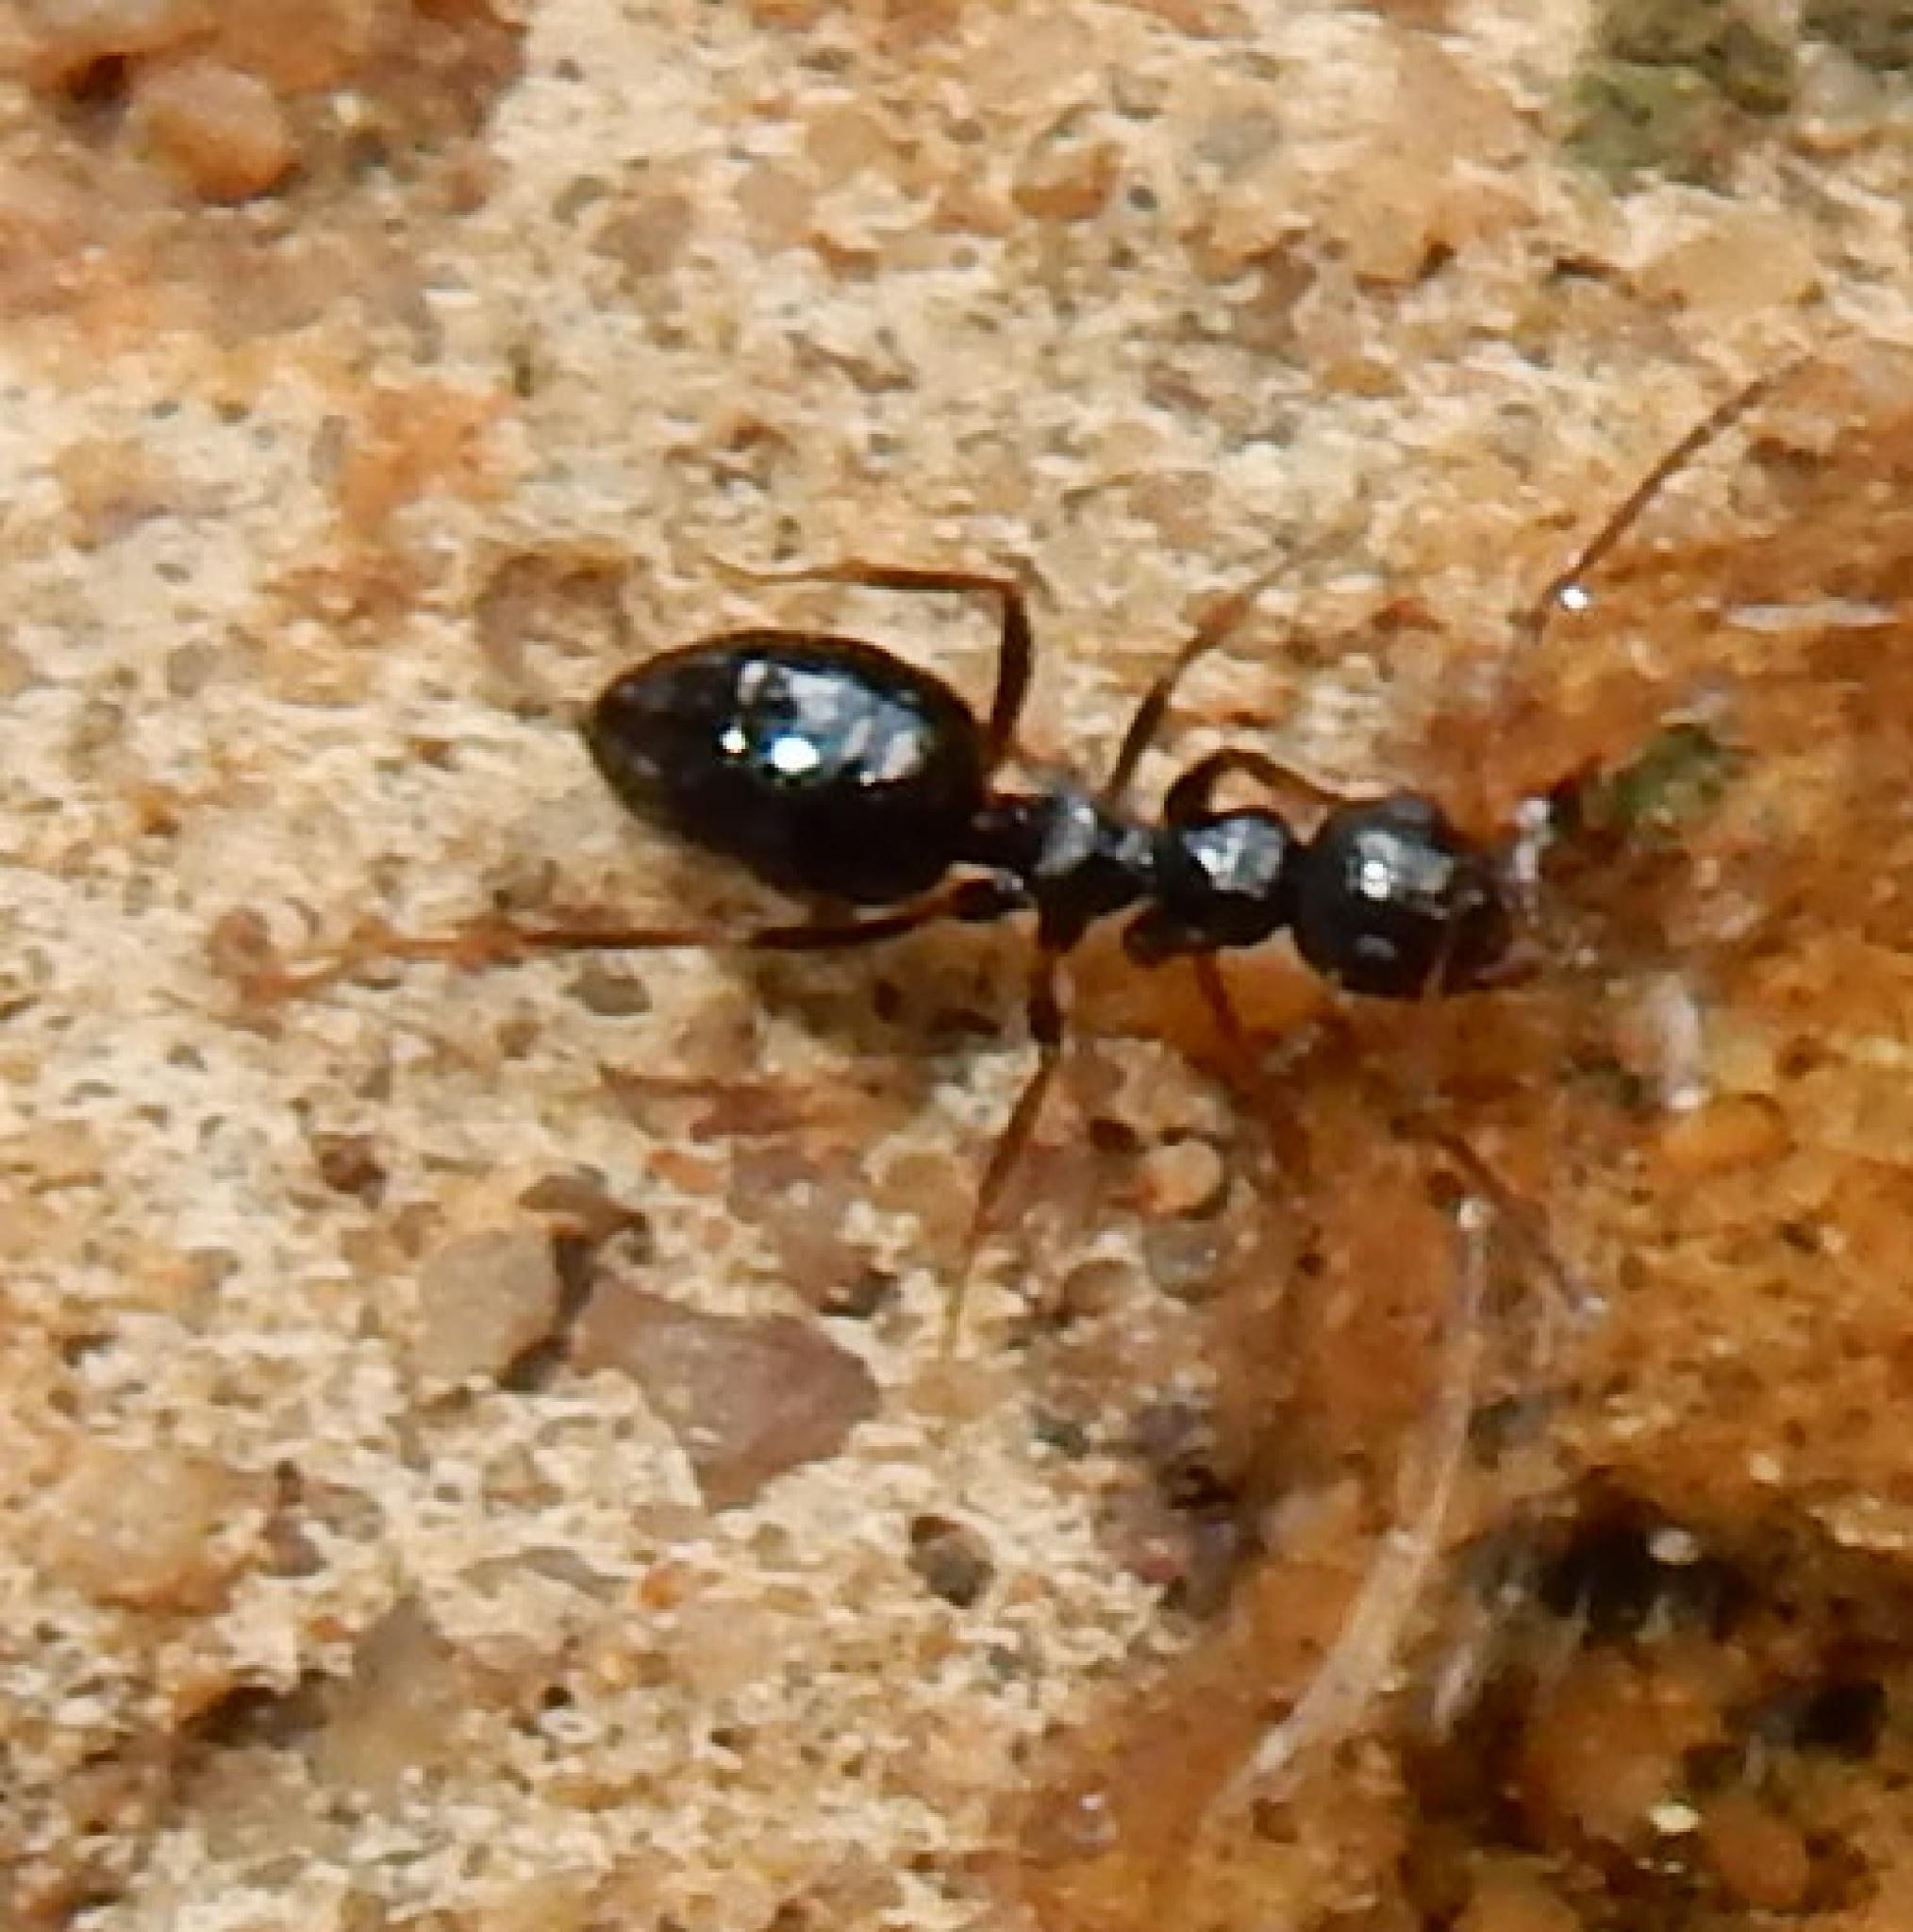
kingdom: Animalia
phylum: Arthropoda
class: Insecta
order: Hymenoptera
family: Formicidae
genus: Lepisiota
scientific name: Lepisiota incisa
